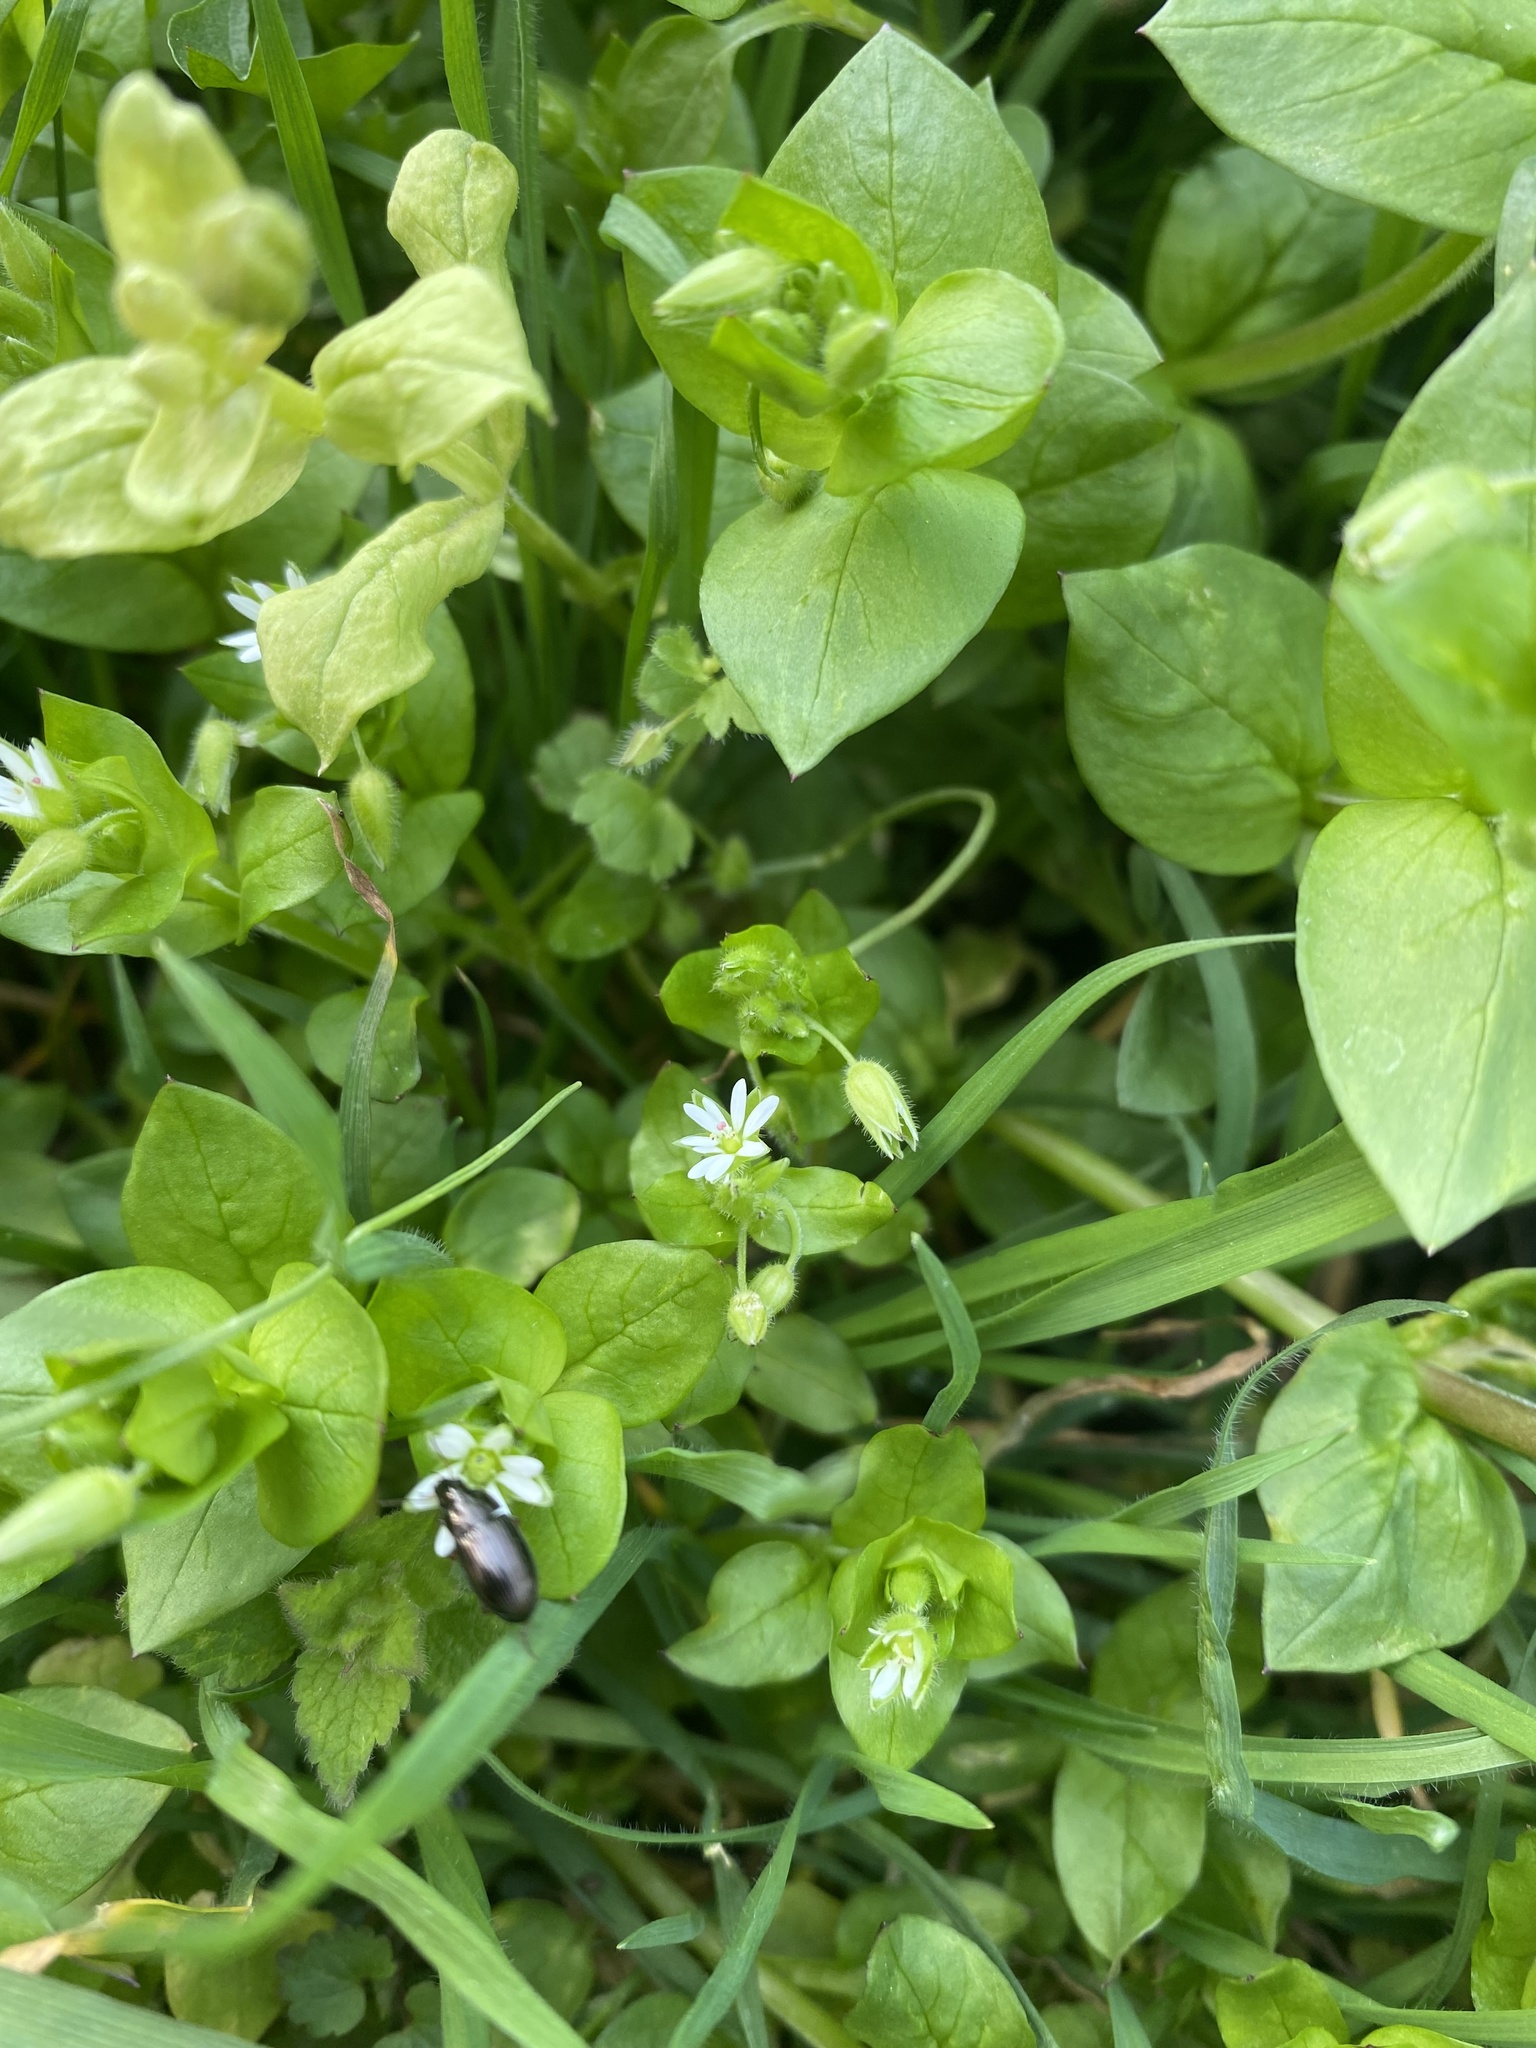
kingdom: Animalia
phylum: Arthropoda
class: Insecta
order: Coleoptera
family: Carabidae
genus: Amara
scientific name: Amara
